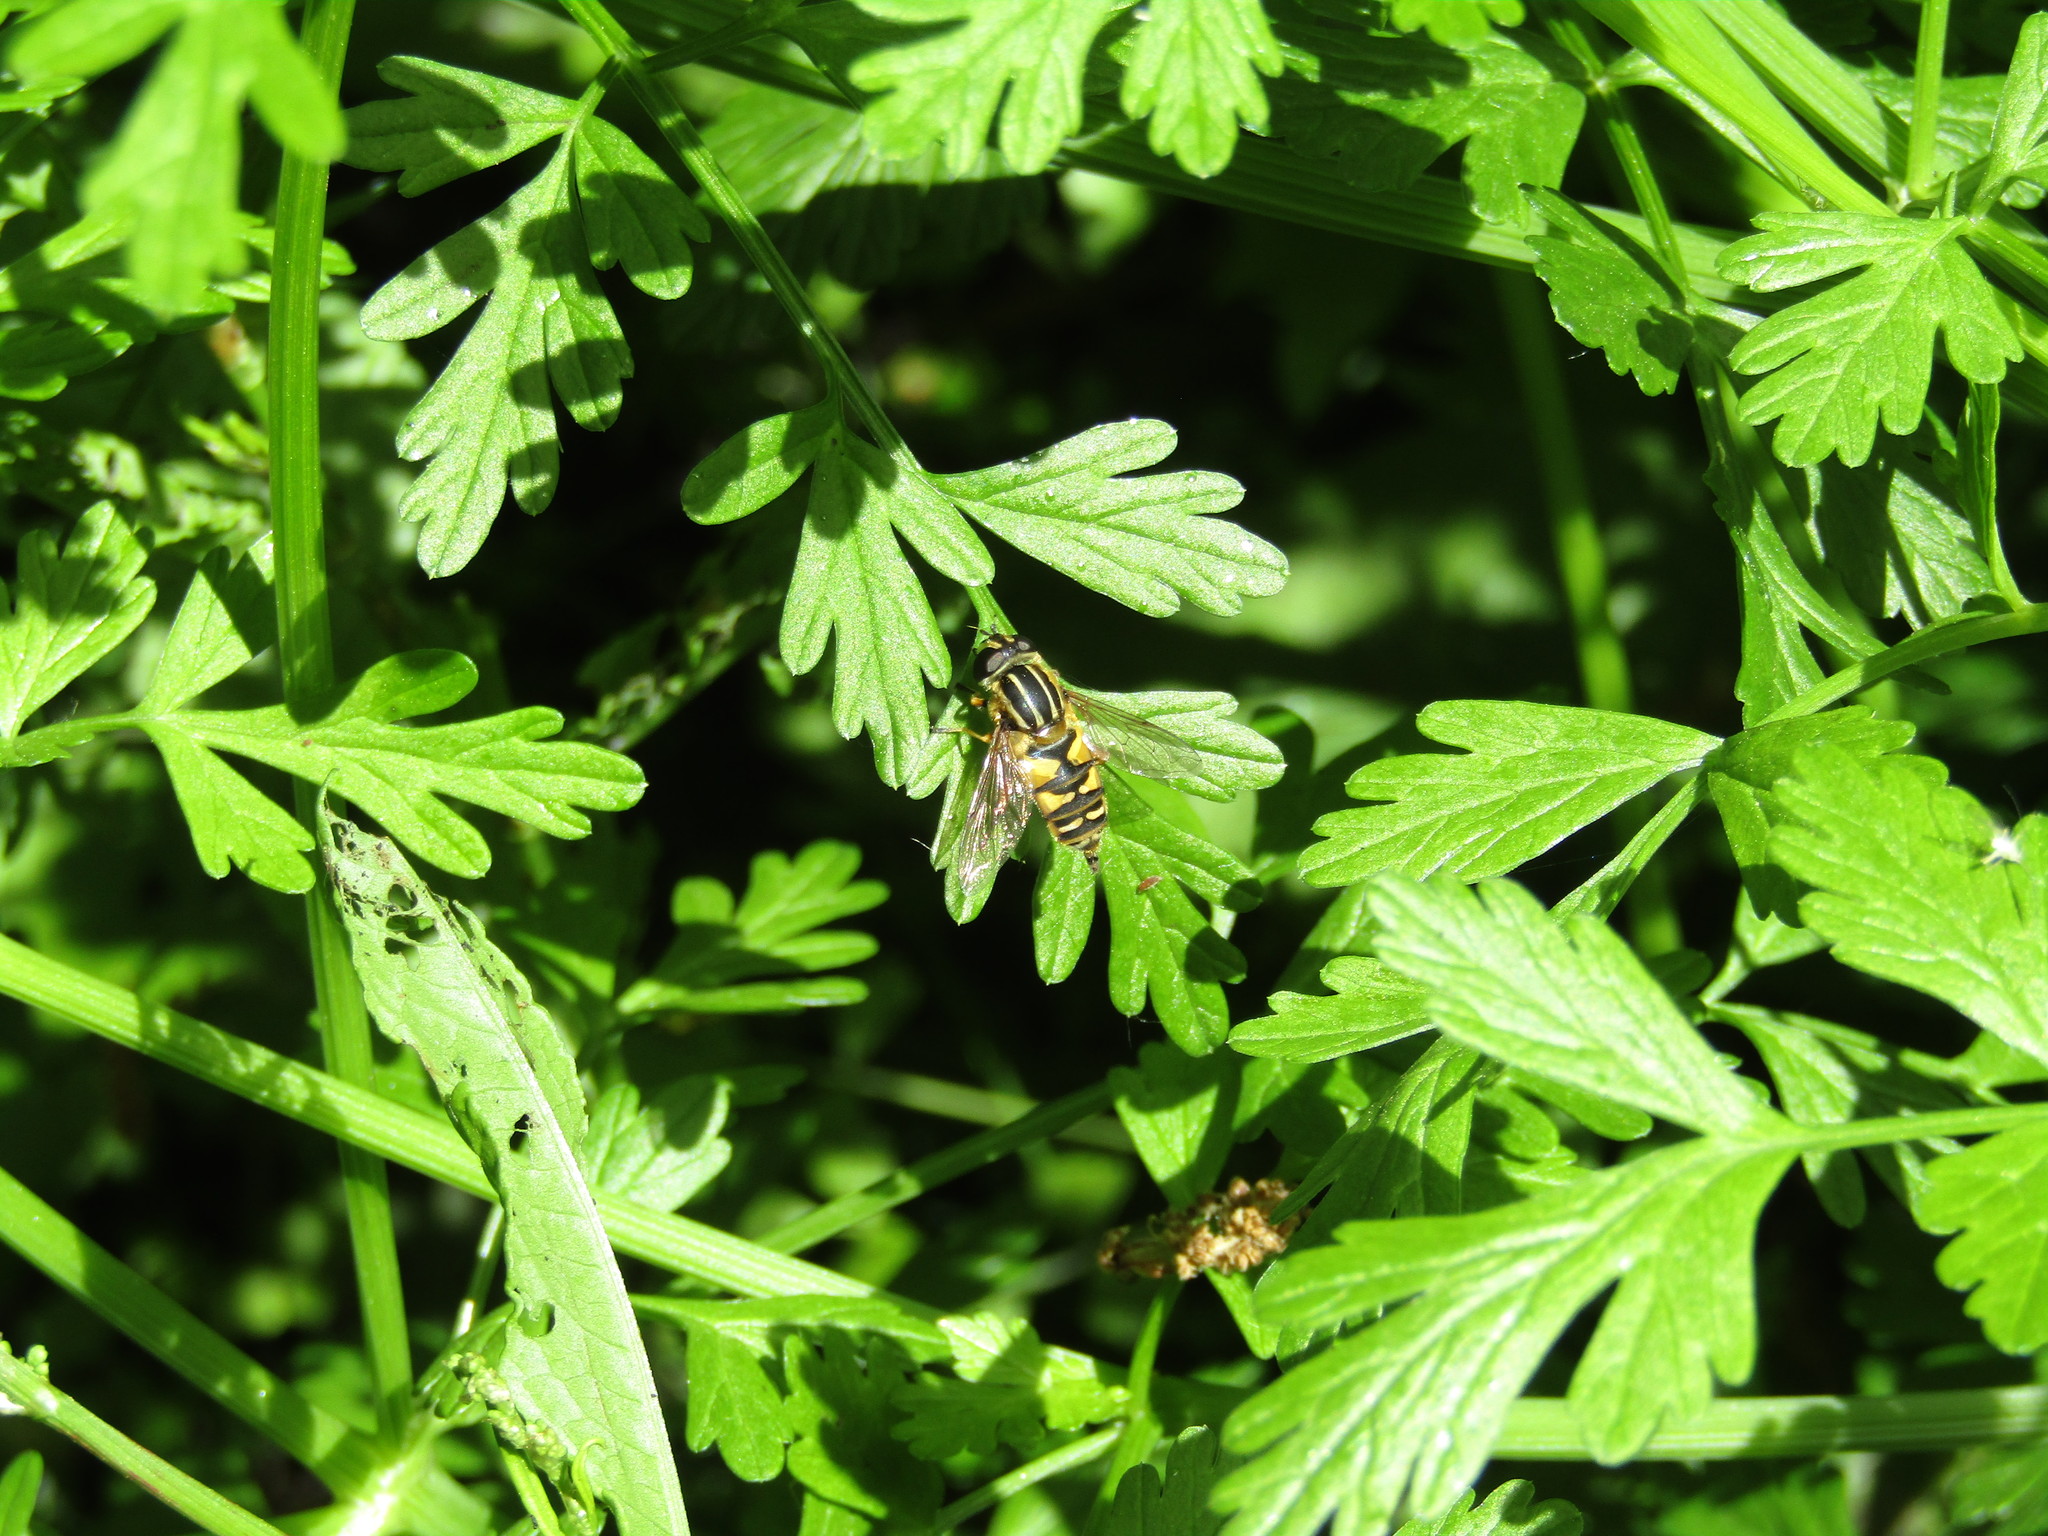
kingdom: Animalia
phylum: Arthropoda
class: Insecta
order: Diptera
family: Syrphidae
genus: Helophilus
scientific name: Helophilus pendulus
